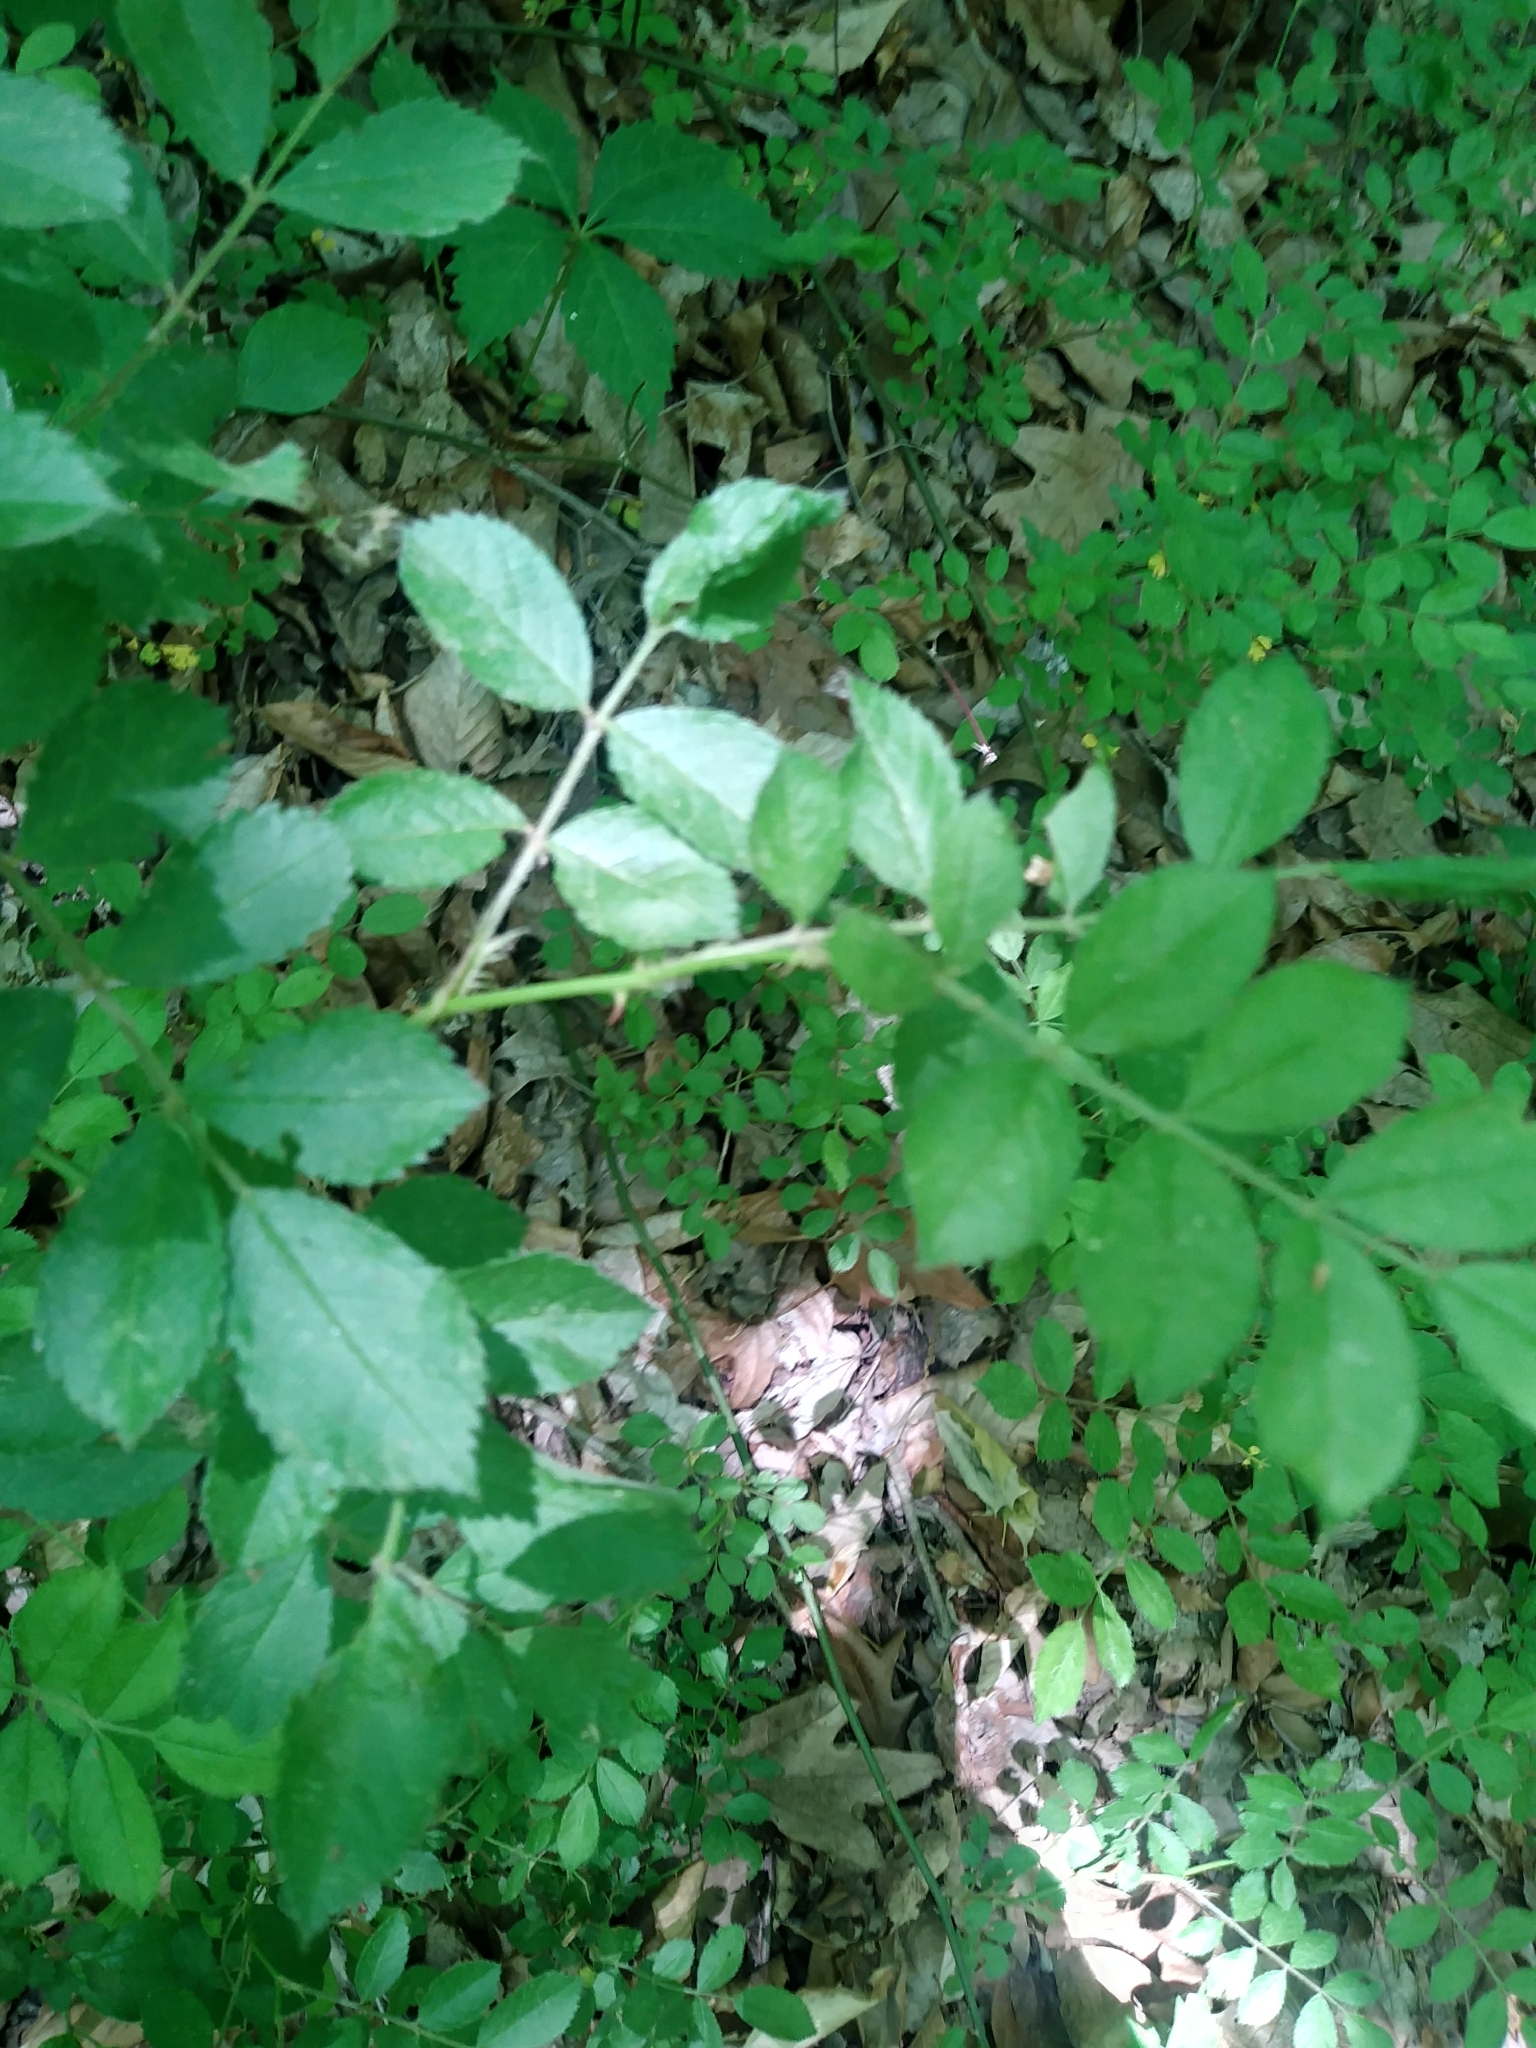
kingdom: Plantae
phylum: Tracheophyta
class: Magnoliopsida
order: Rosales
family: Rosaceae
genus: Rosa
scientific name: Rosa multiflora
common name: Multiflora rose
